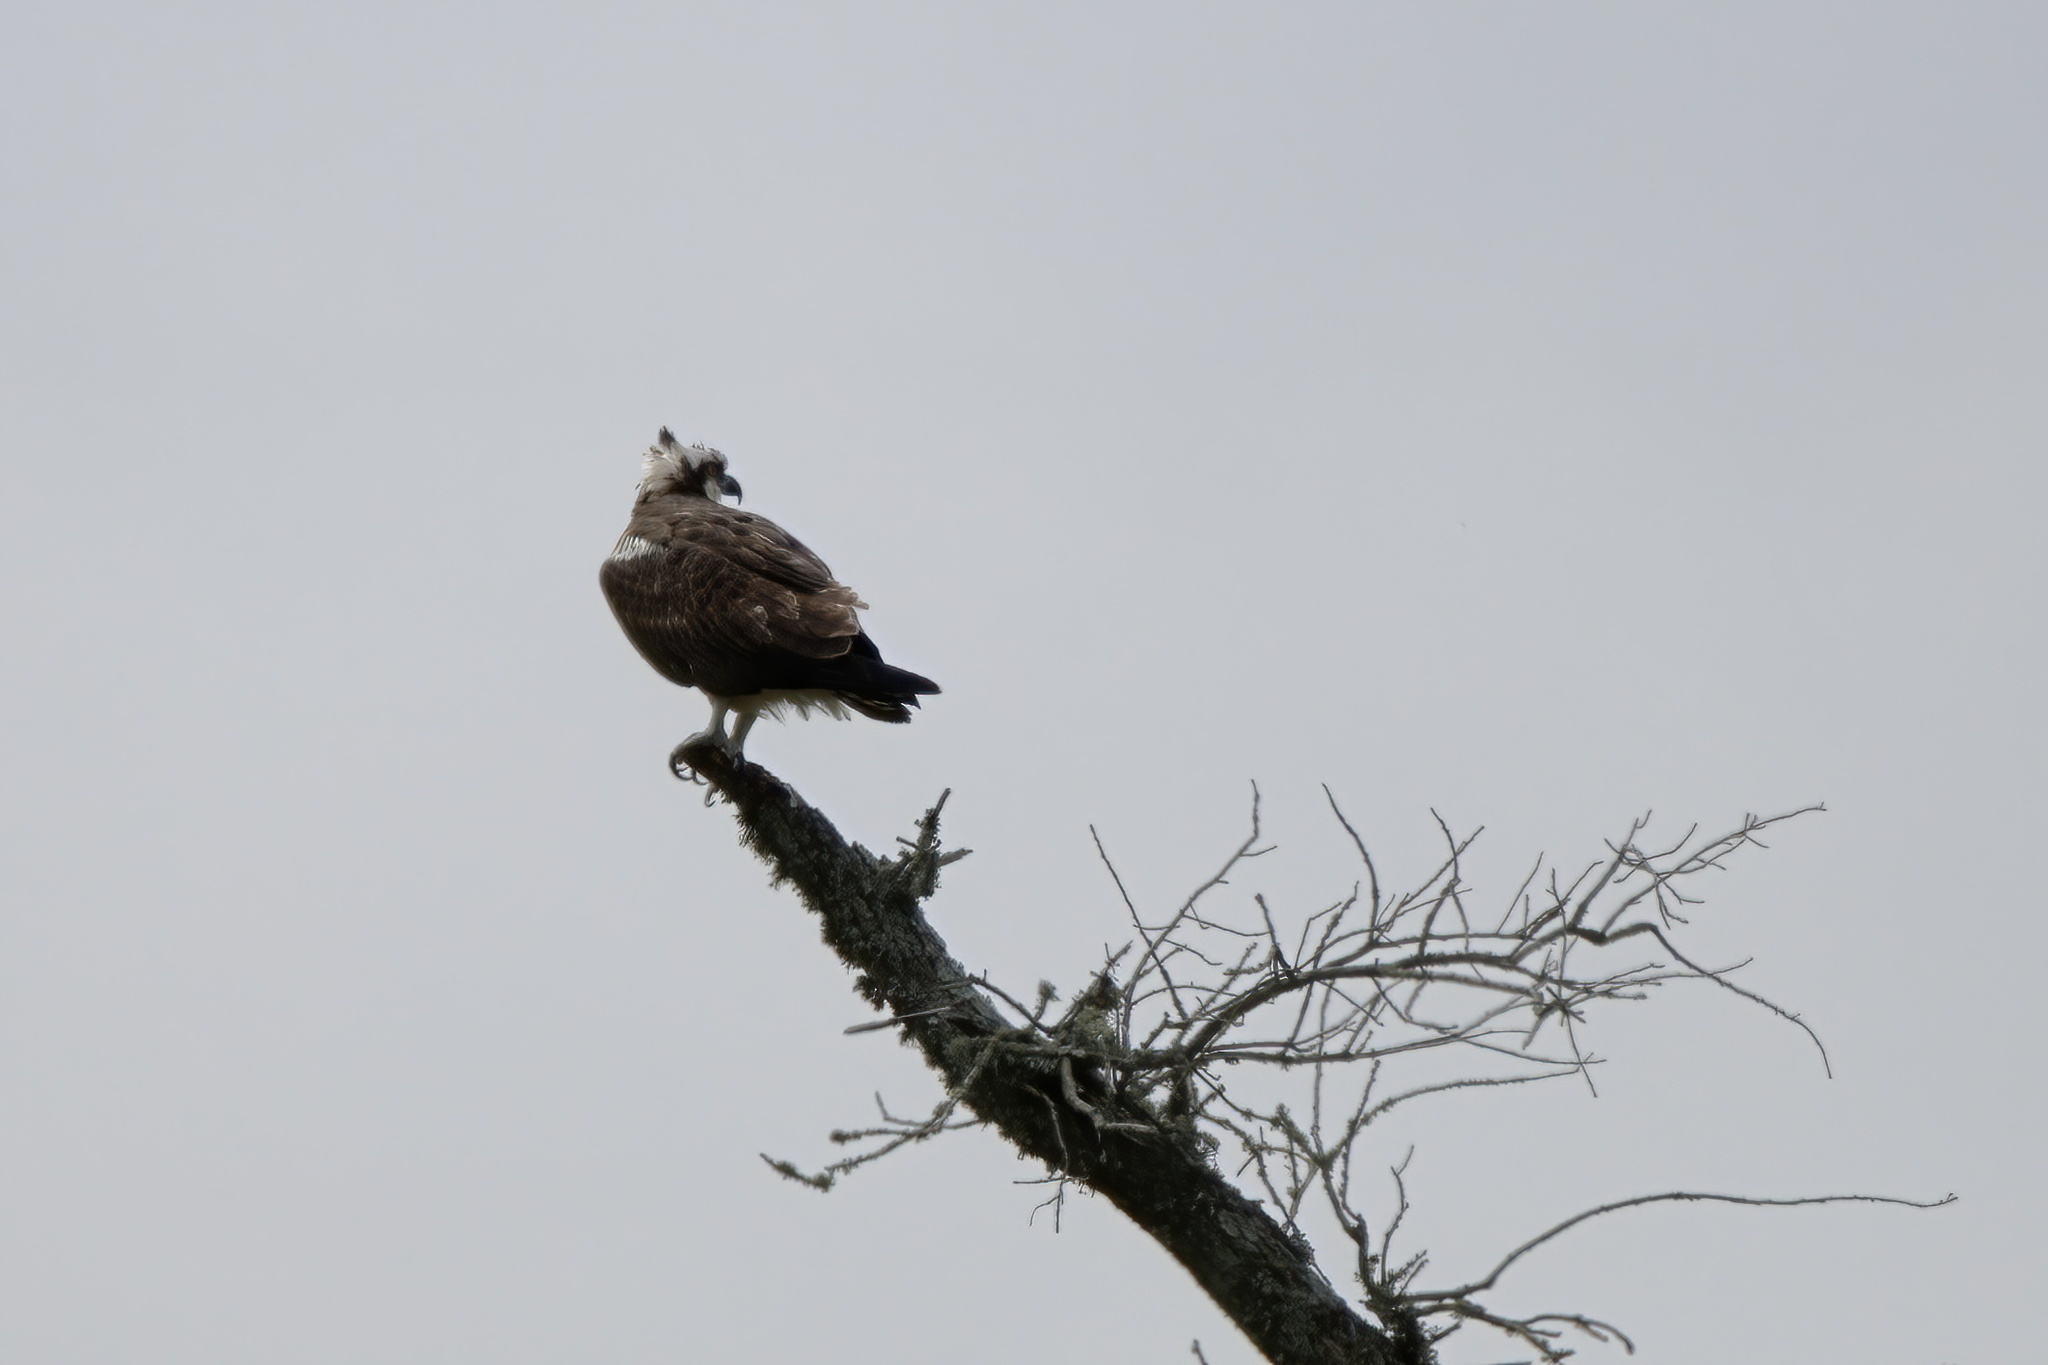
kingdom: Animalia
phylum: Chordata
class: Aves
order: Accipitriformes
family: Pandionidae
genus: Pandion
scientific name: Pandion haliaetus
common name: Osprey
